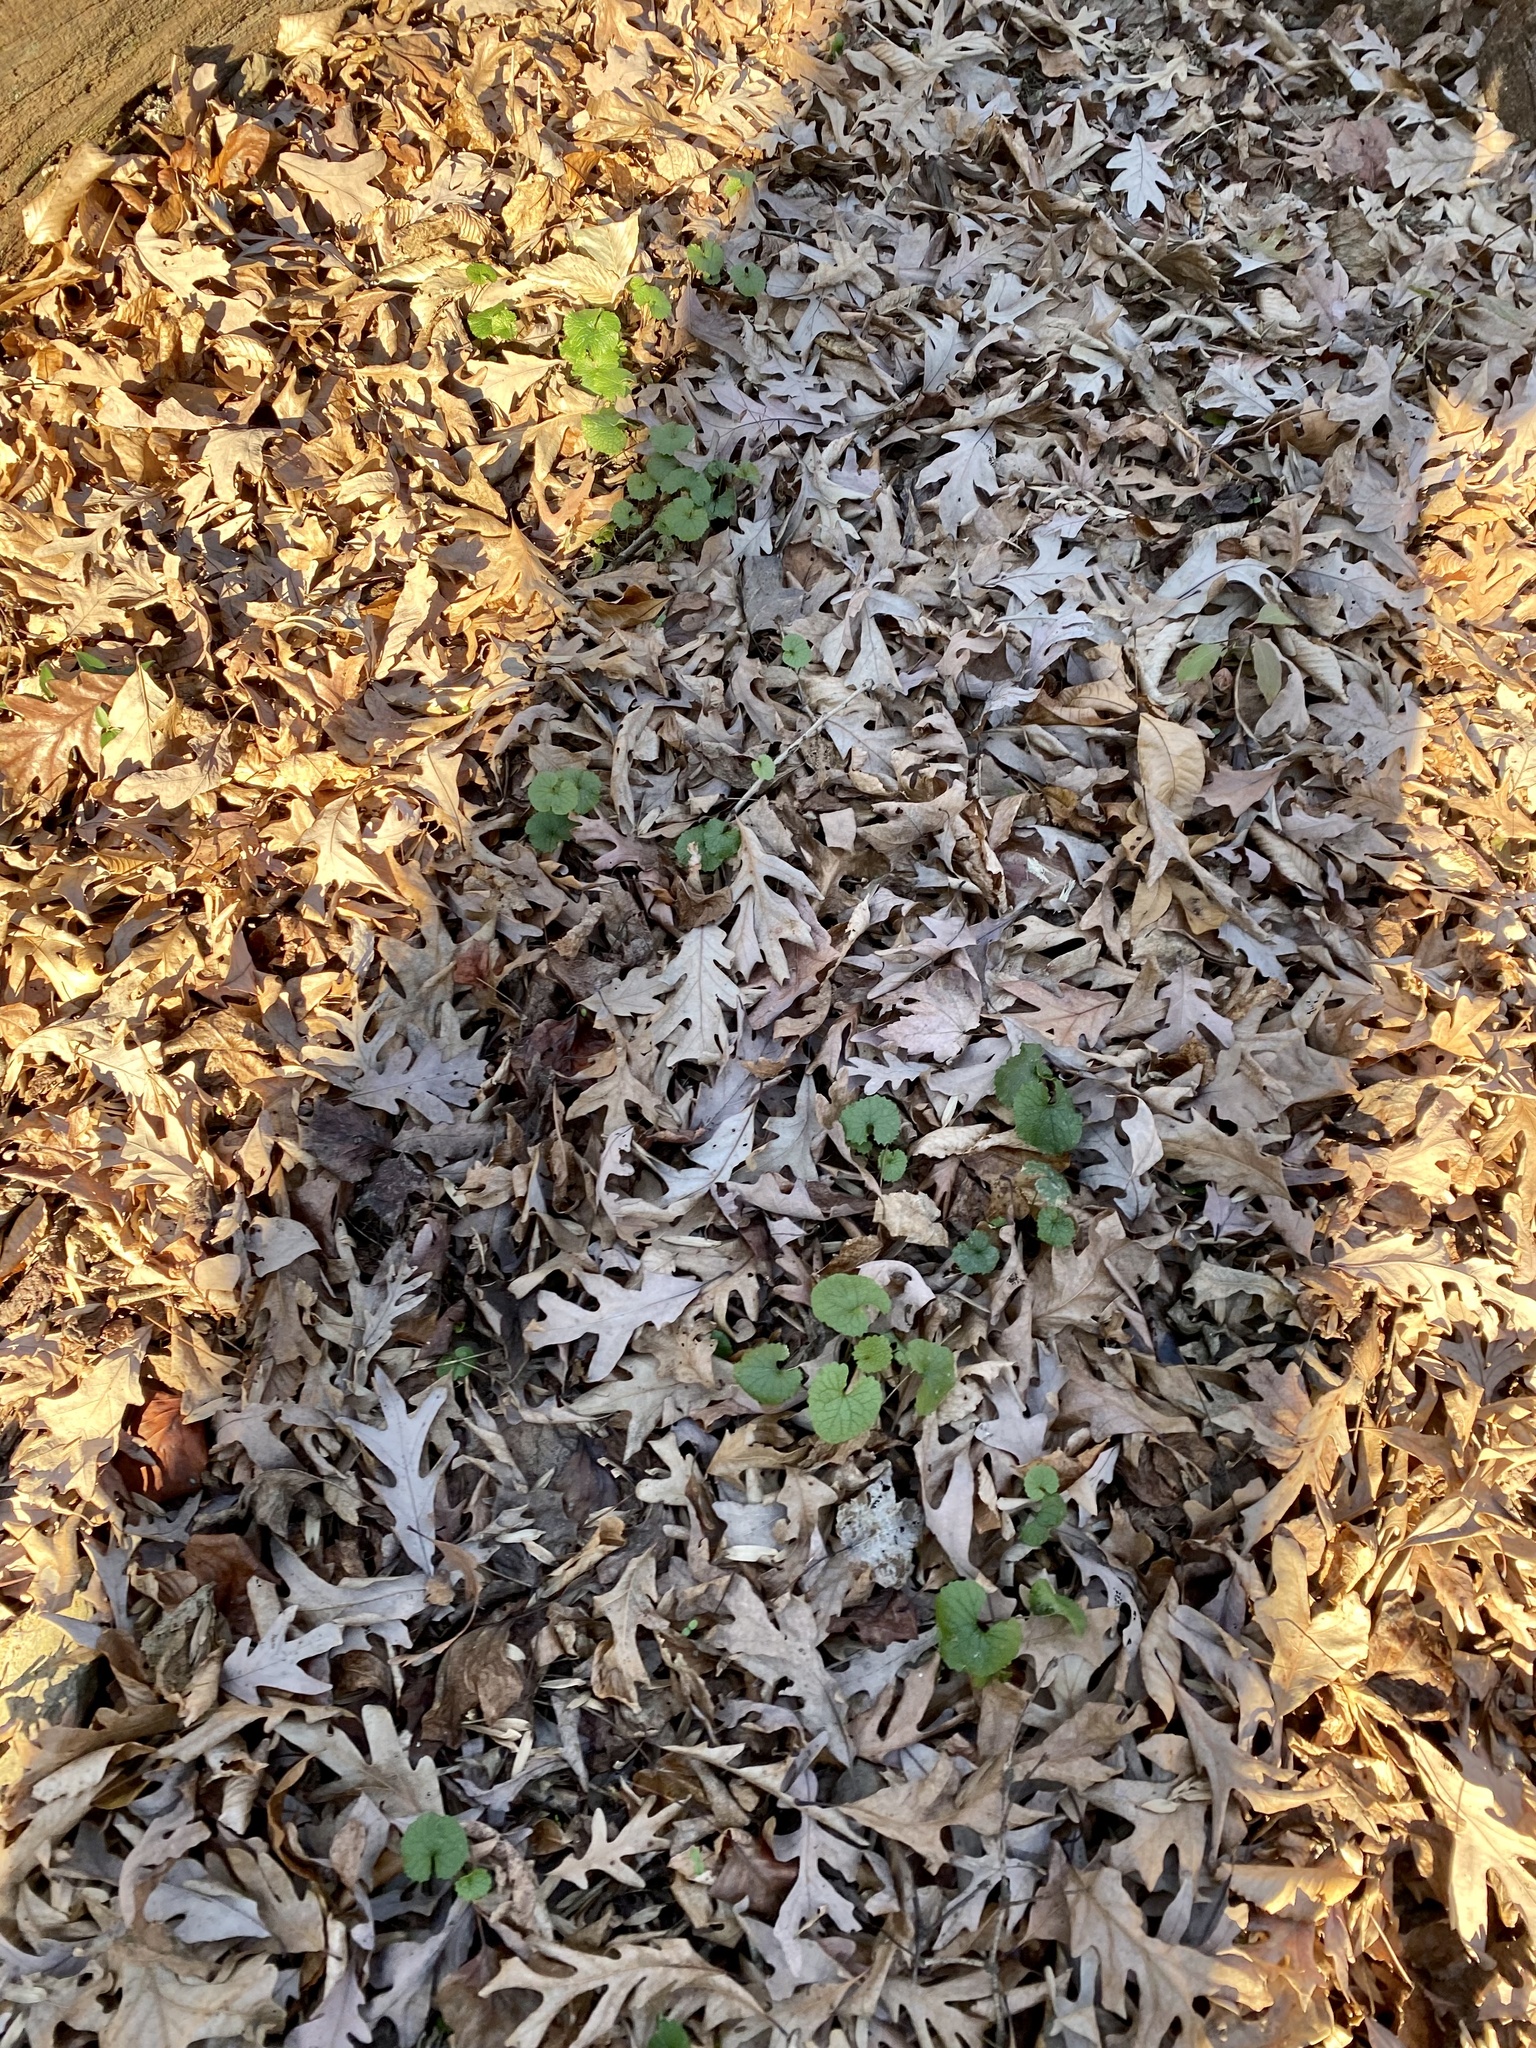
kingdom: Plantae
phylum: Tracheophyta
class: Magnoliopsida
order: Brassicales
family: Brassicaceae
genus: Alliaria
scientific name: Alliaria petiolata
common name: Garlic mustard
